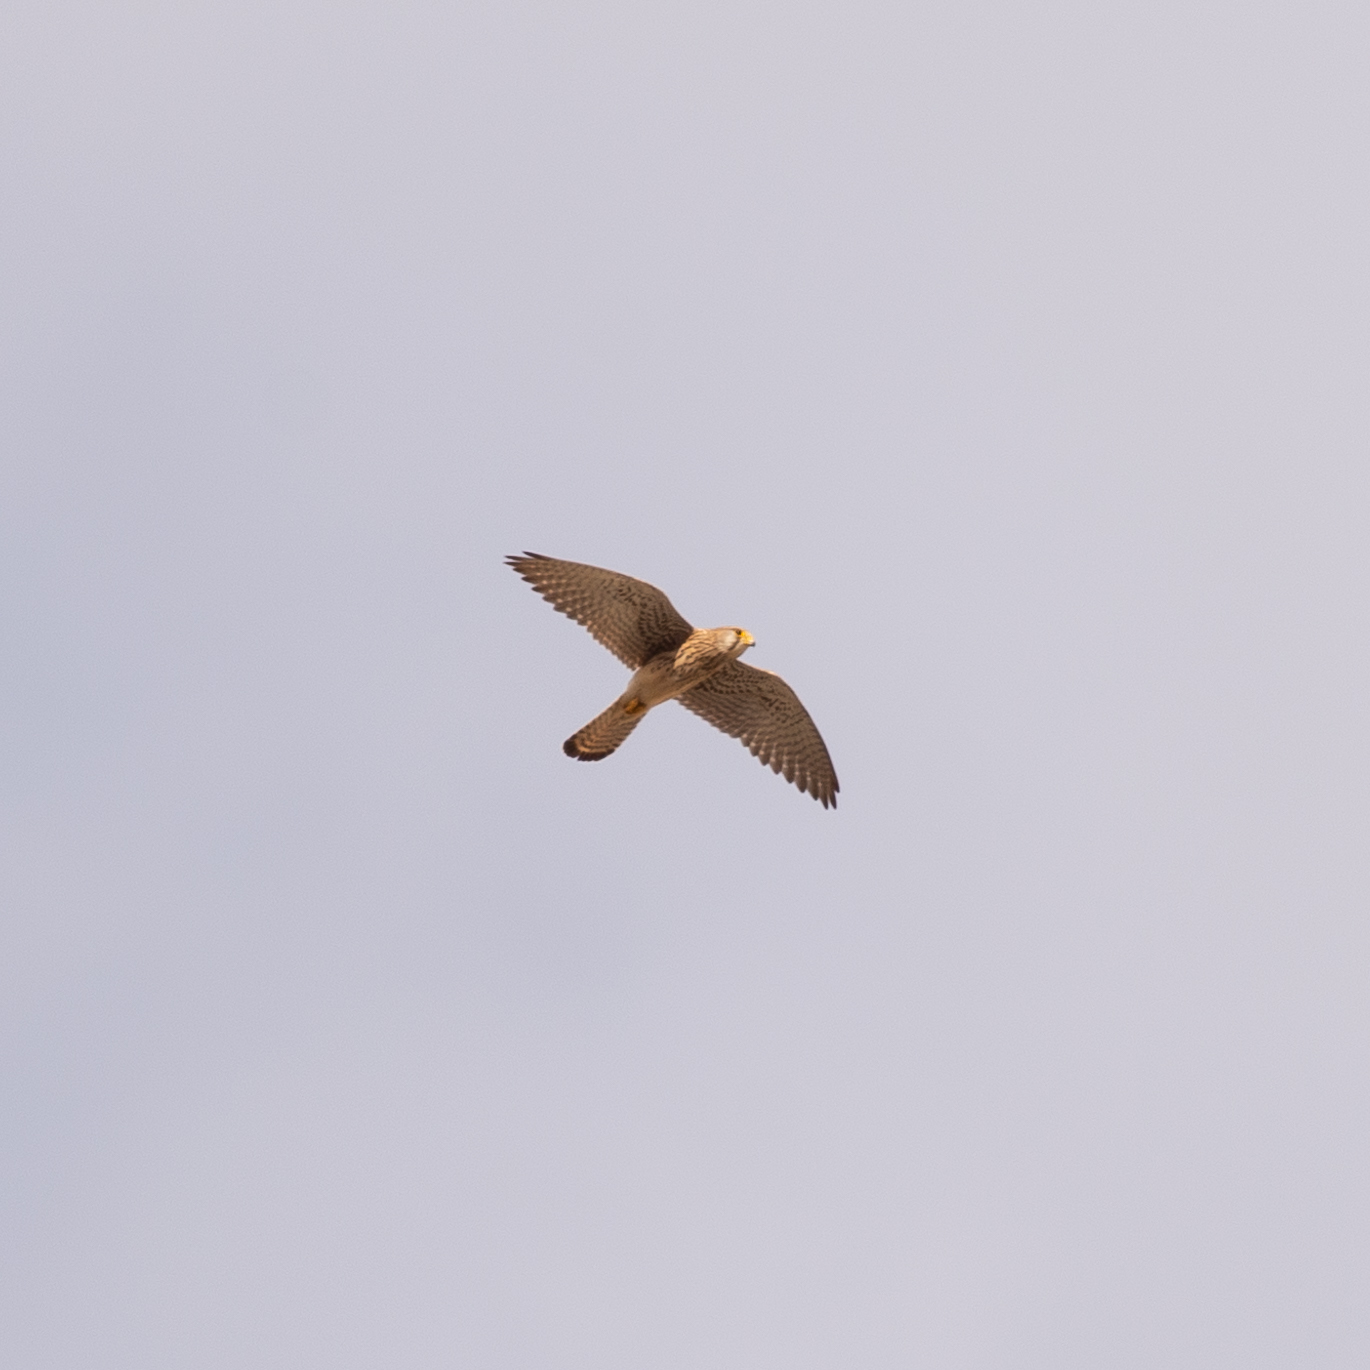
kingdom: Animalia
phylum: Chordata
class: Aves
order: Falconiformes
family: Falconidae
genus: Falco
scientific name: Falco tinnunculus
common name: Common kestrel
